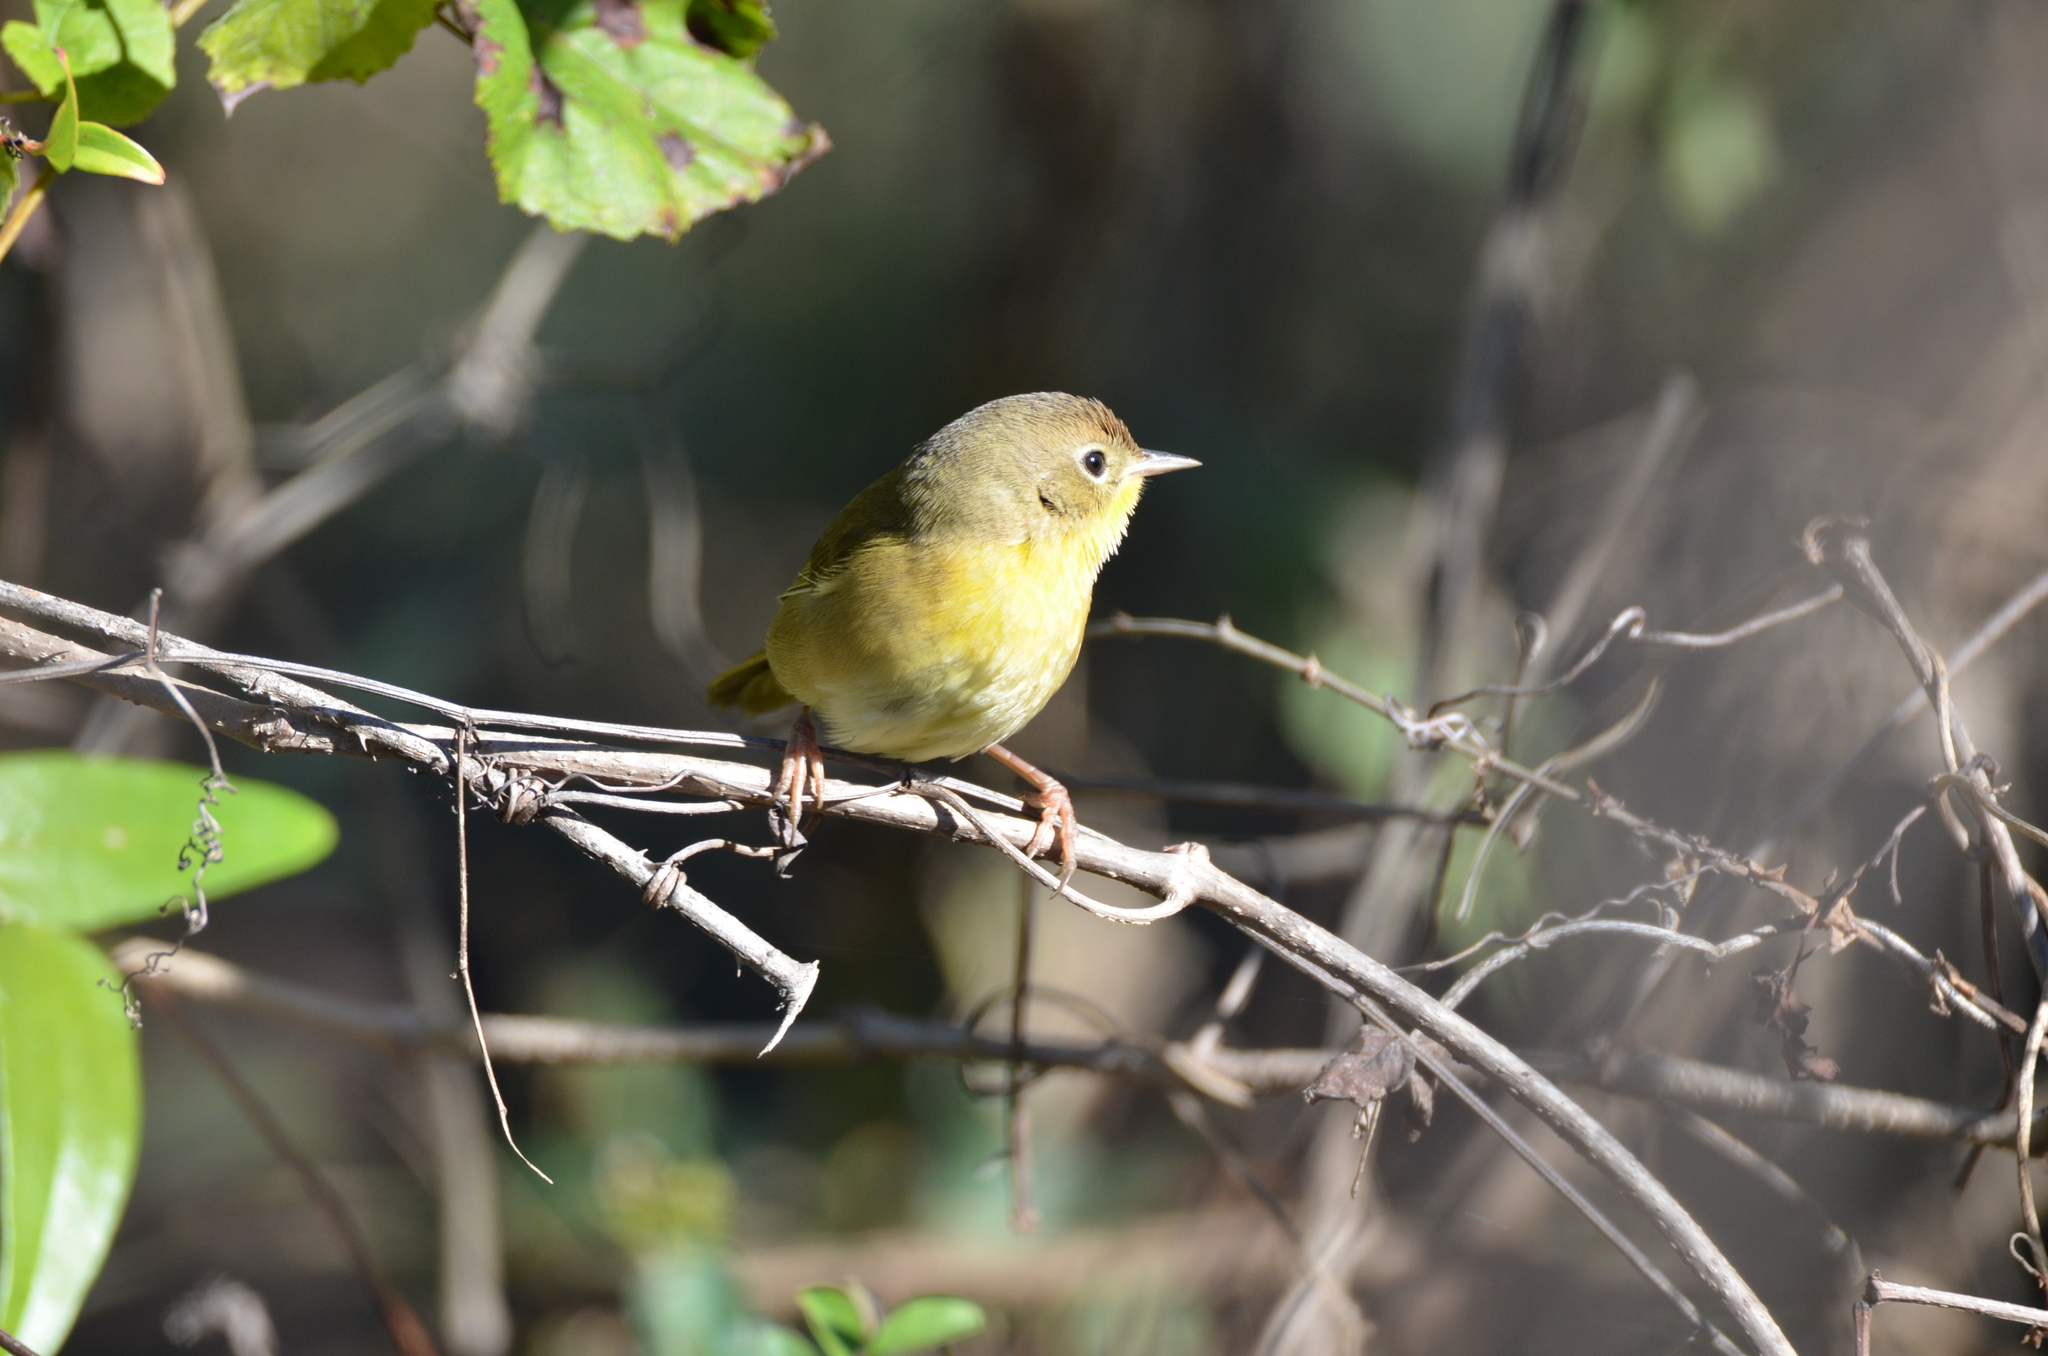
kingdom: Animalia
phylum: Chordata
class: Aves
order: Passeriformes
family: Parulidae
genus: Geothlypis
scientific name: Geothlypis trichas
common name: Common yellowthroat
